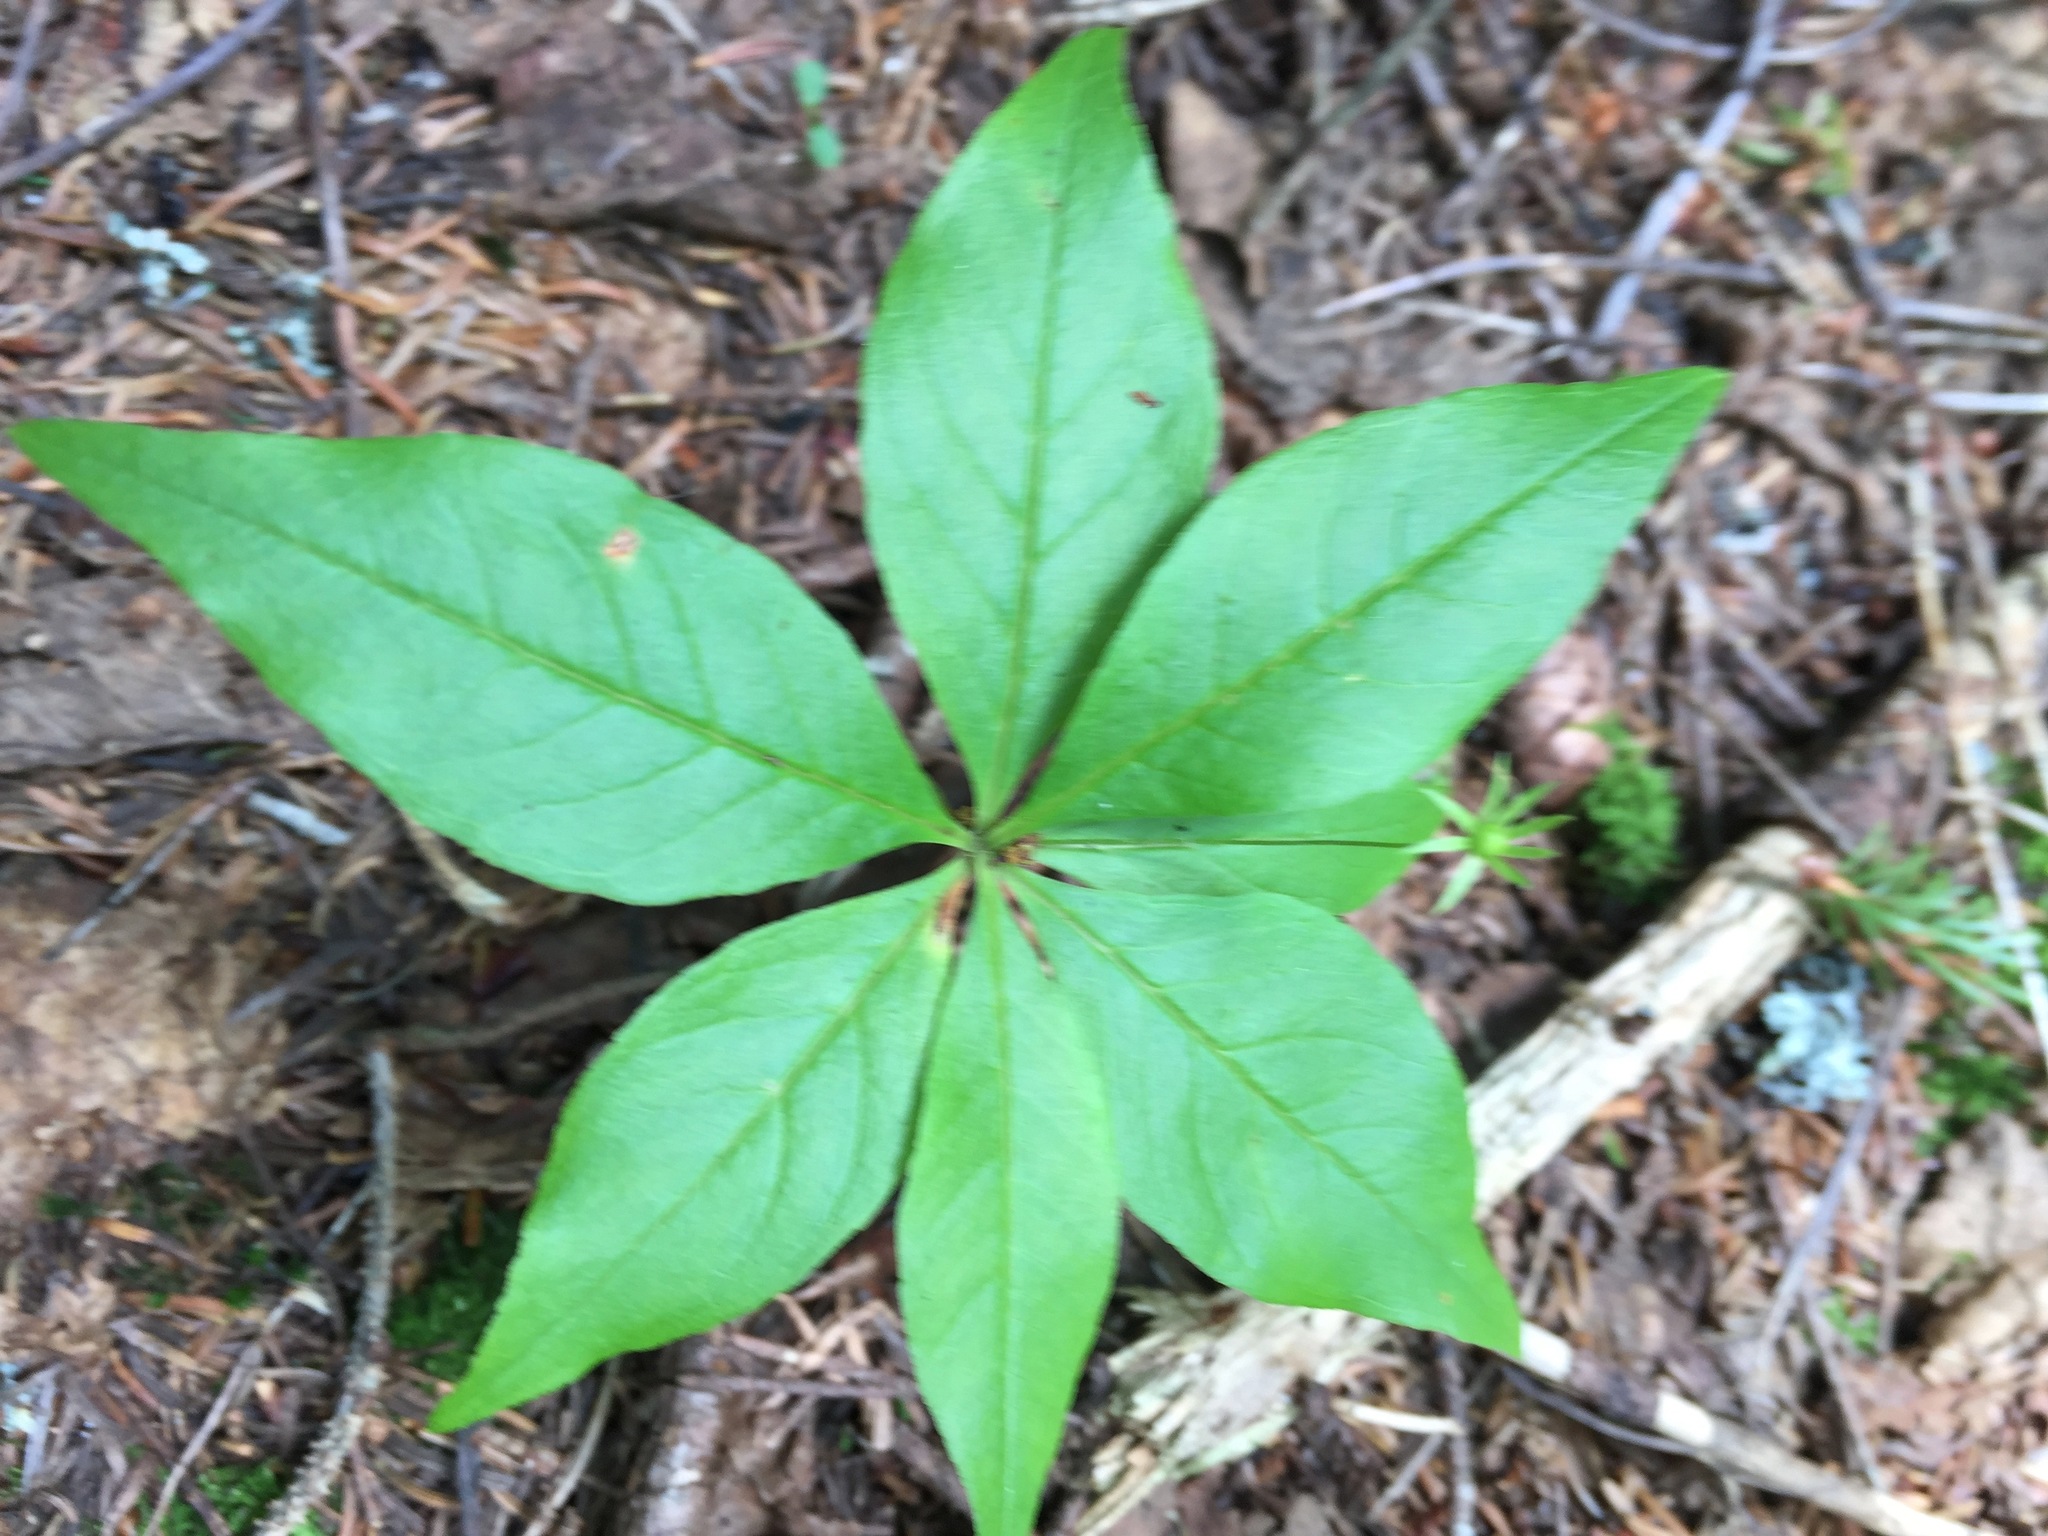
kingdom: Plantae
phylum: Tracheophyta
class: Magnoliopsida
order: Ericales
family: Primulaceae
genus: Lysimachia
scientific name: Lysimachia borealis
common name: American starflower
